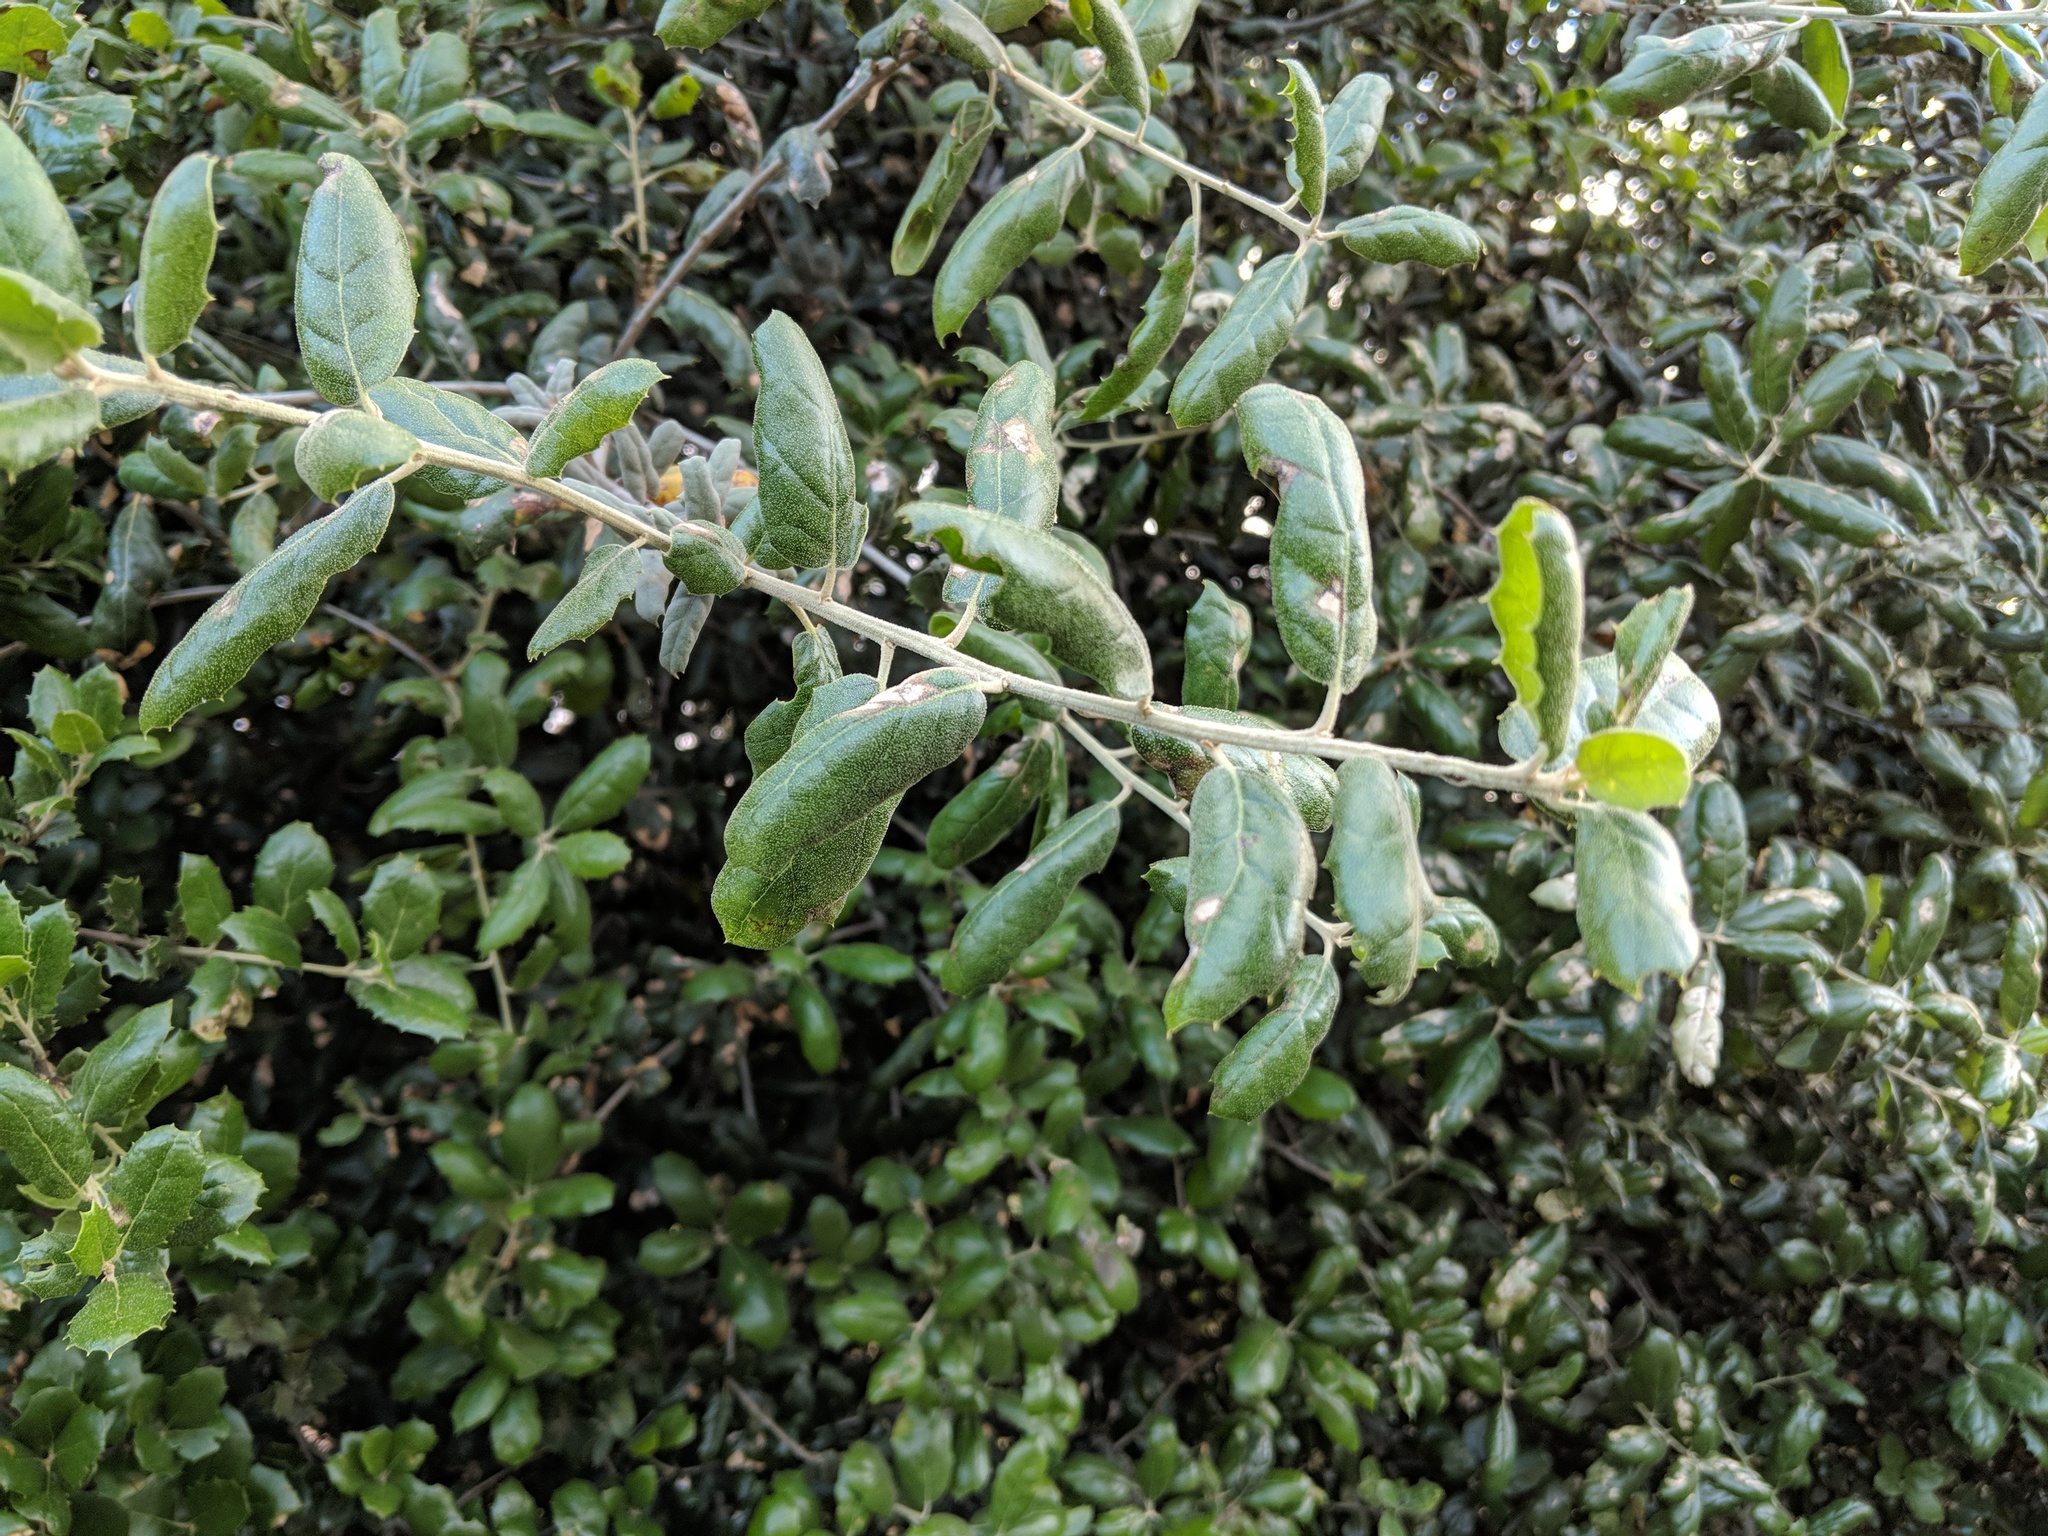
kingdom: Plantae
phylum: Tracheophyta
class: Magnoliopsida
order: Fagales
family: Fagaceae
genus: Quercus
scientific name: Quercus agrifolia
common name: California live oak
